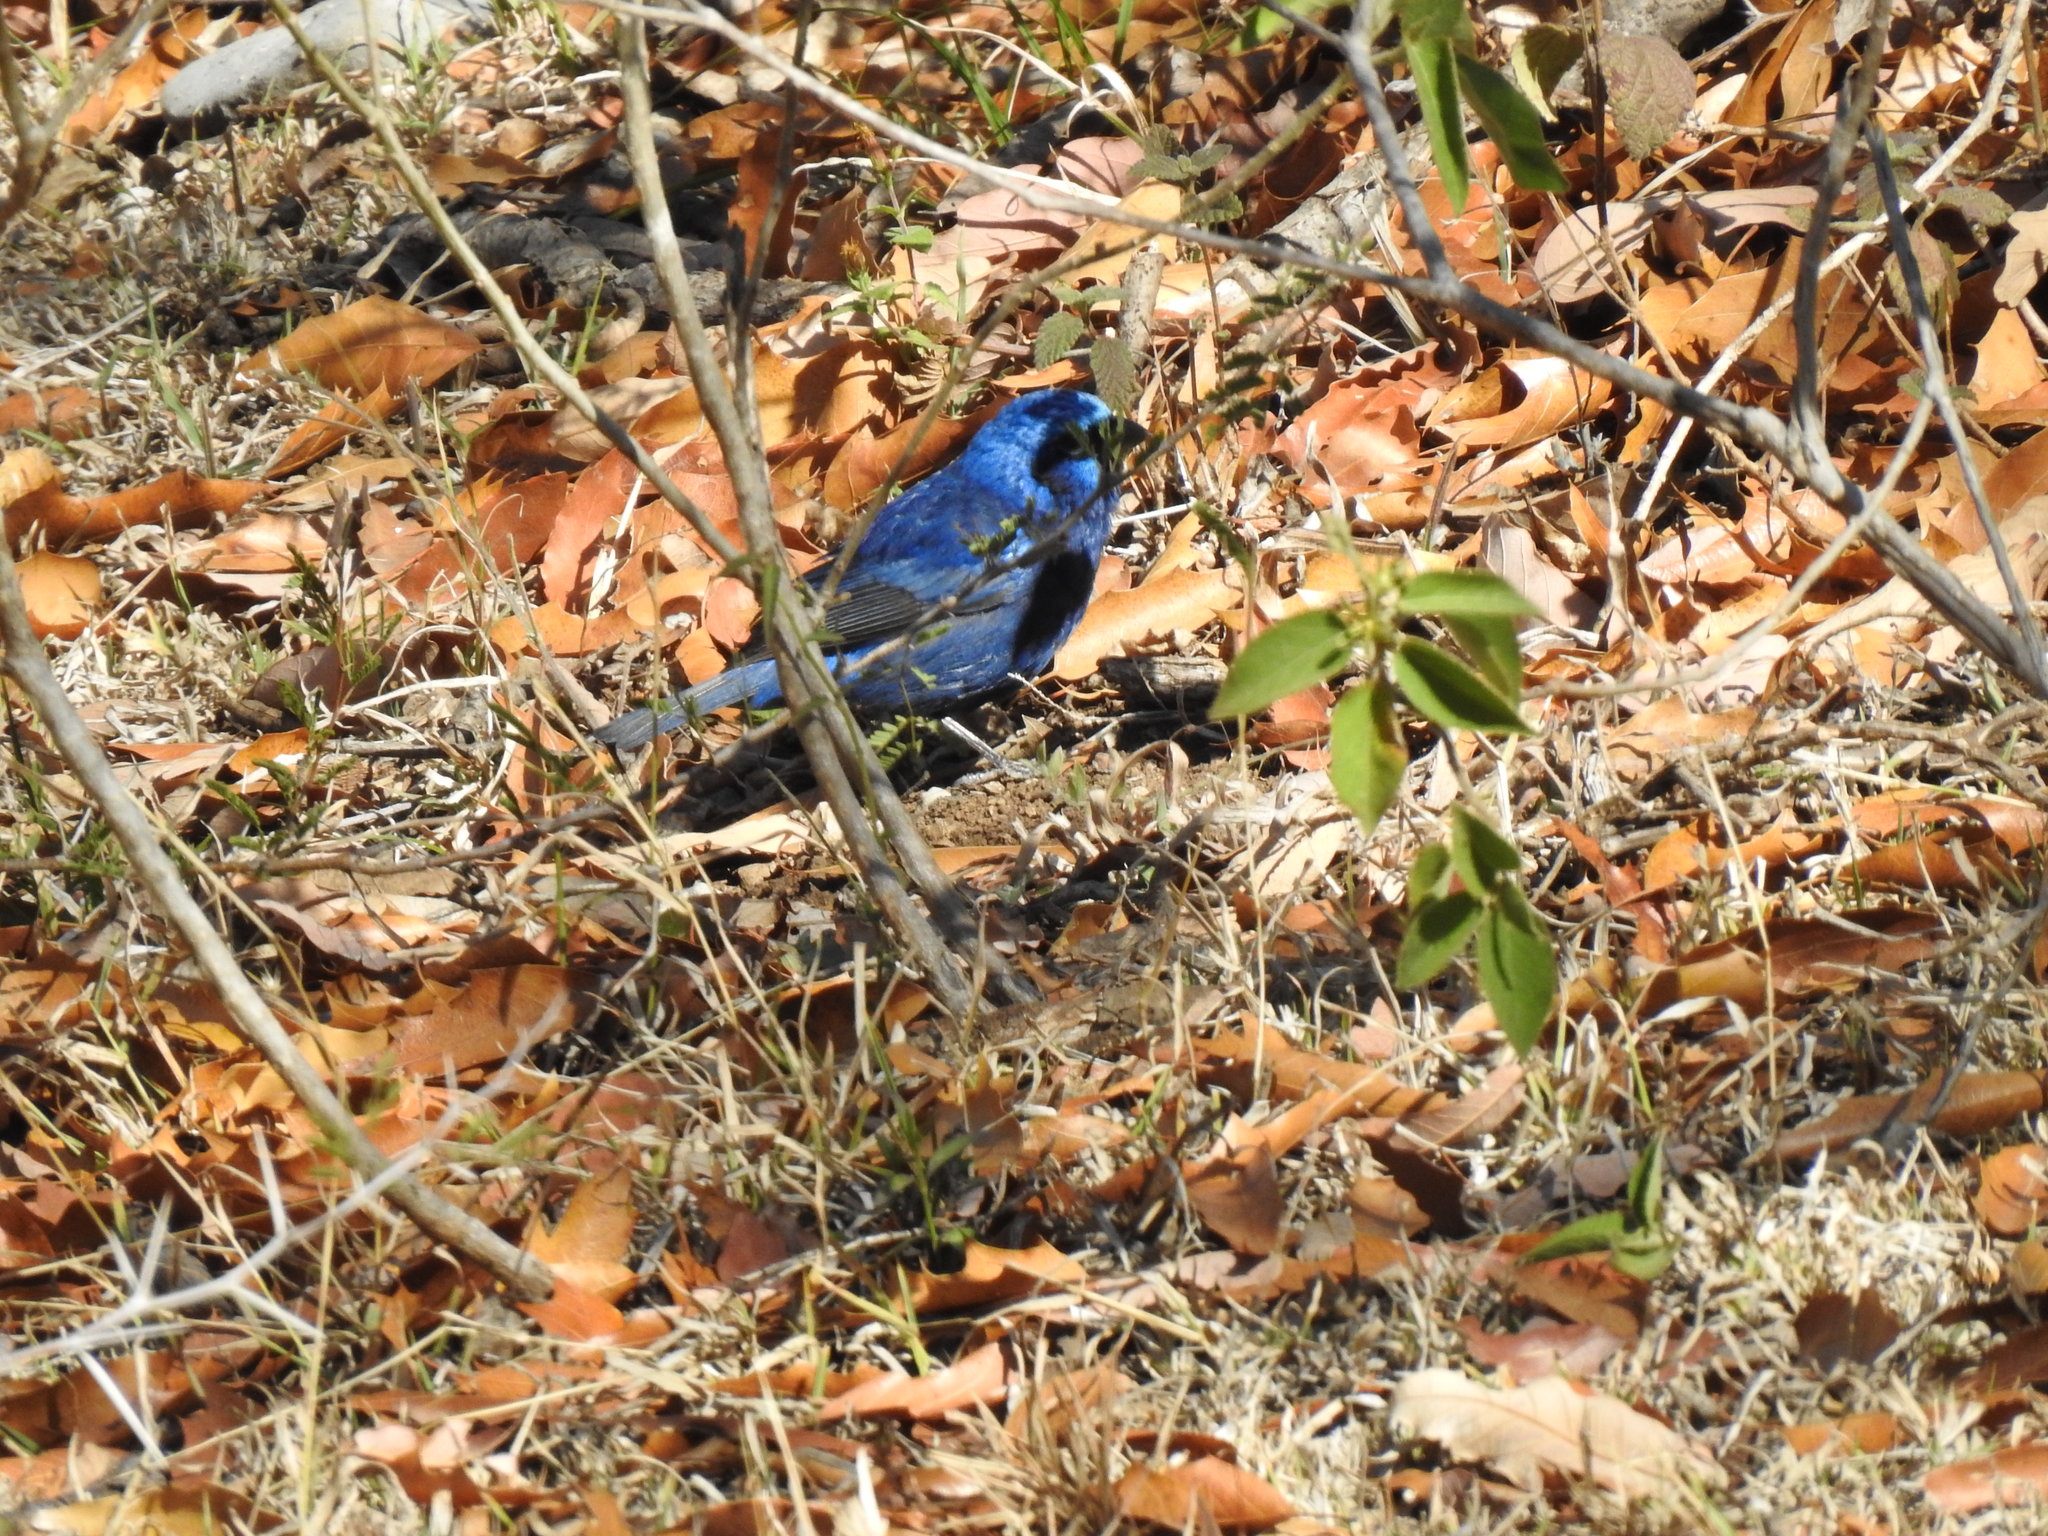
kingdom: Animalia
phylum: Chordata
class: Aves
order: Passeriformes
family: Cardinalidae
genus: Cyanocompsa
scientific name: Cyanocompsa parellina
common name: Blue bunting
